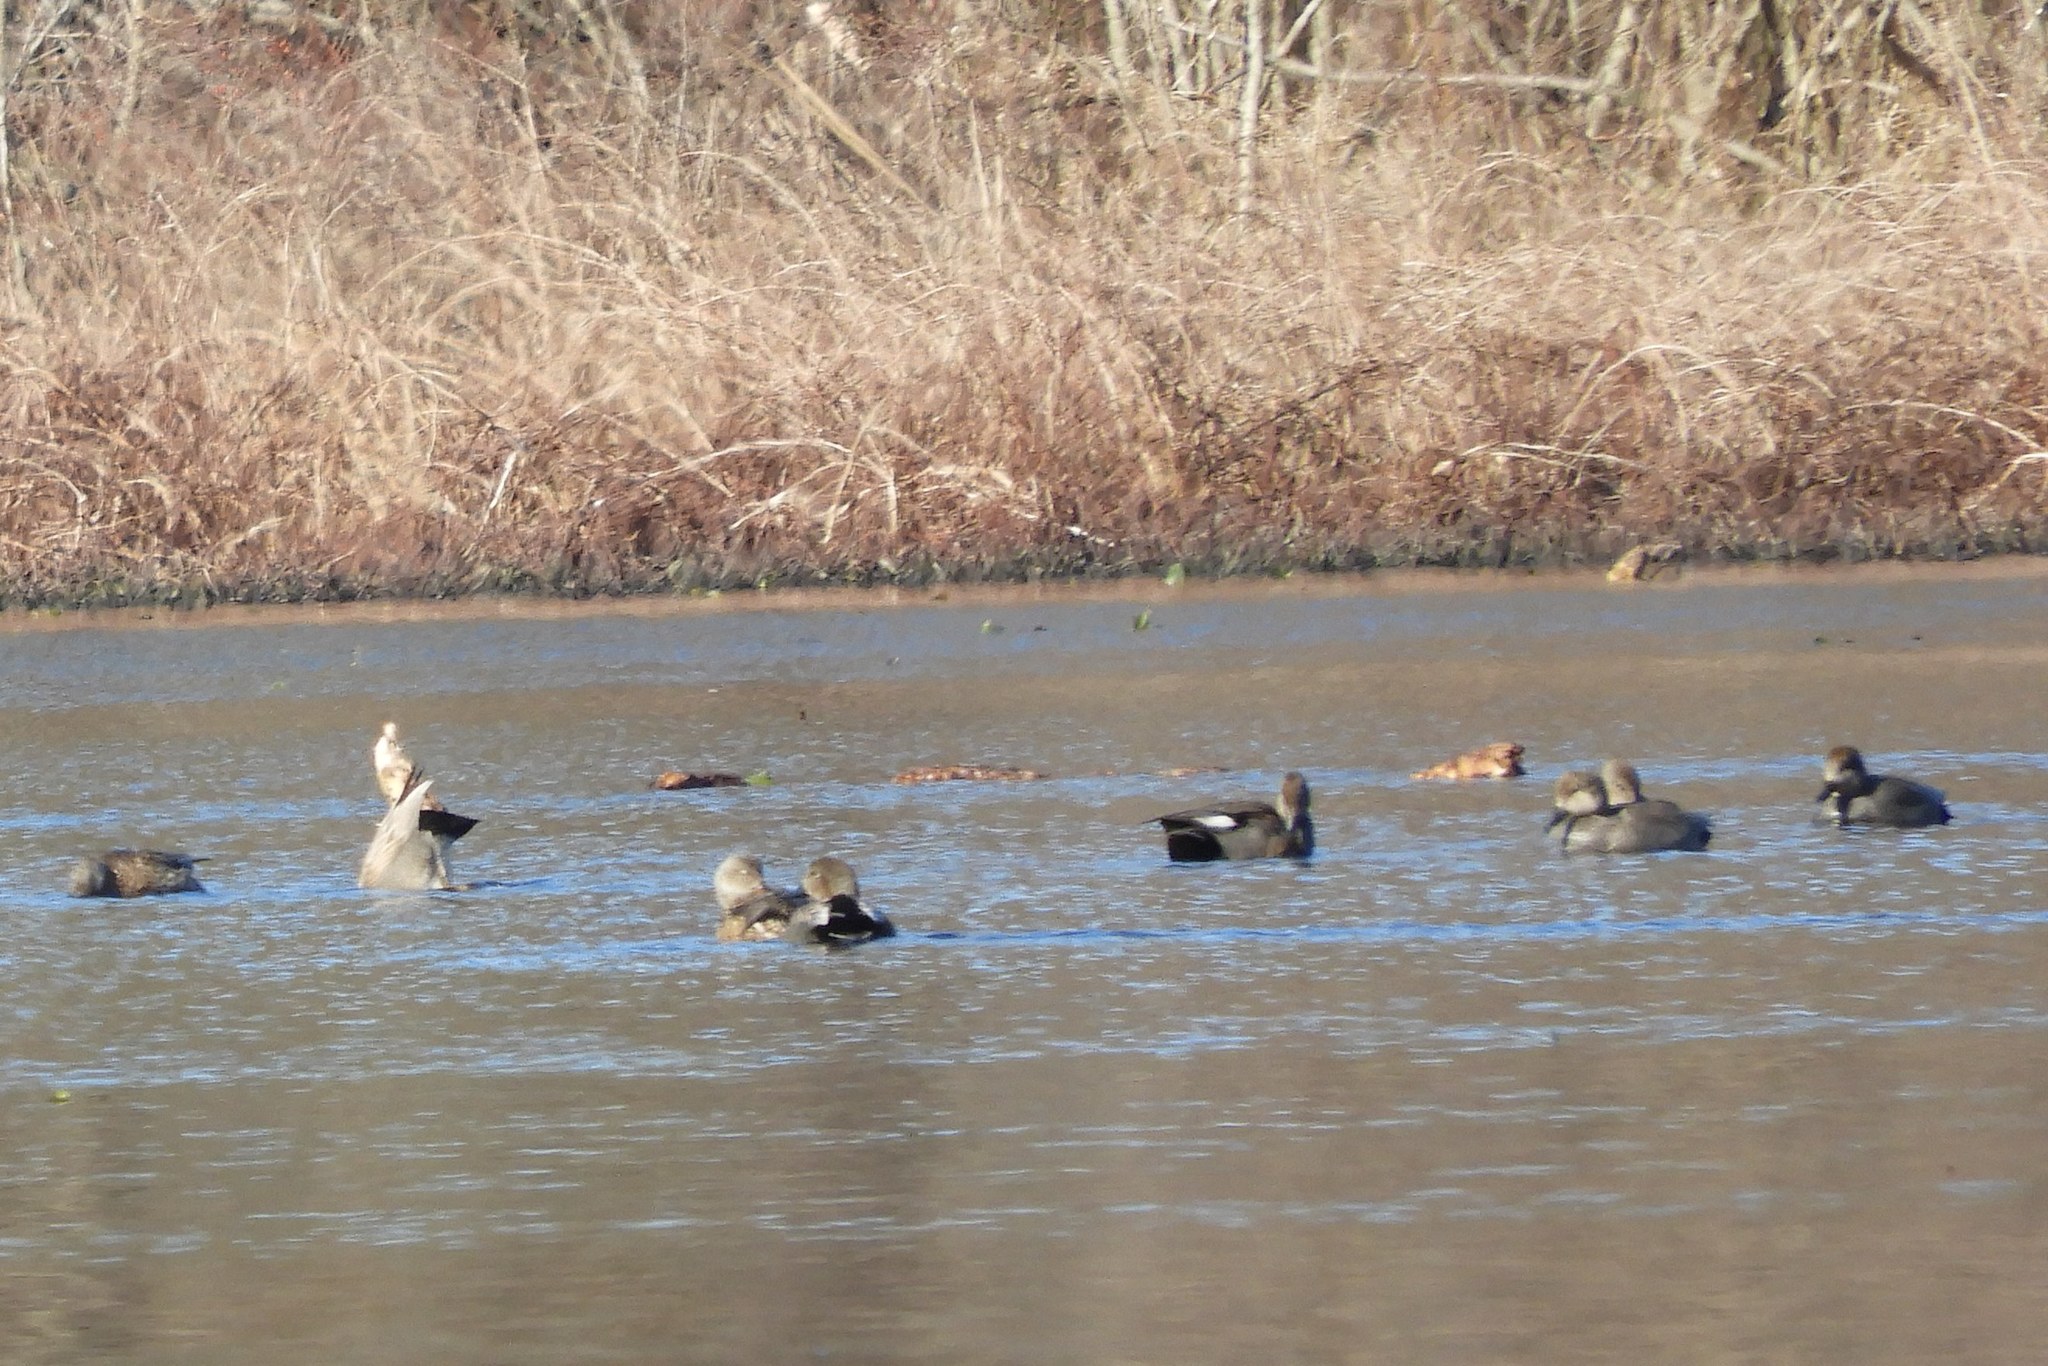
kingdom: Animalia
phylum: Chordata
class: Aves
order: Anseriformes
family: Anatidae
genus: Mareca
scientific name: Mareca strepera
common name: Gadwall
